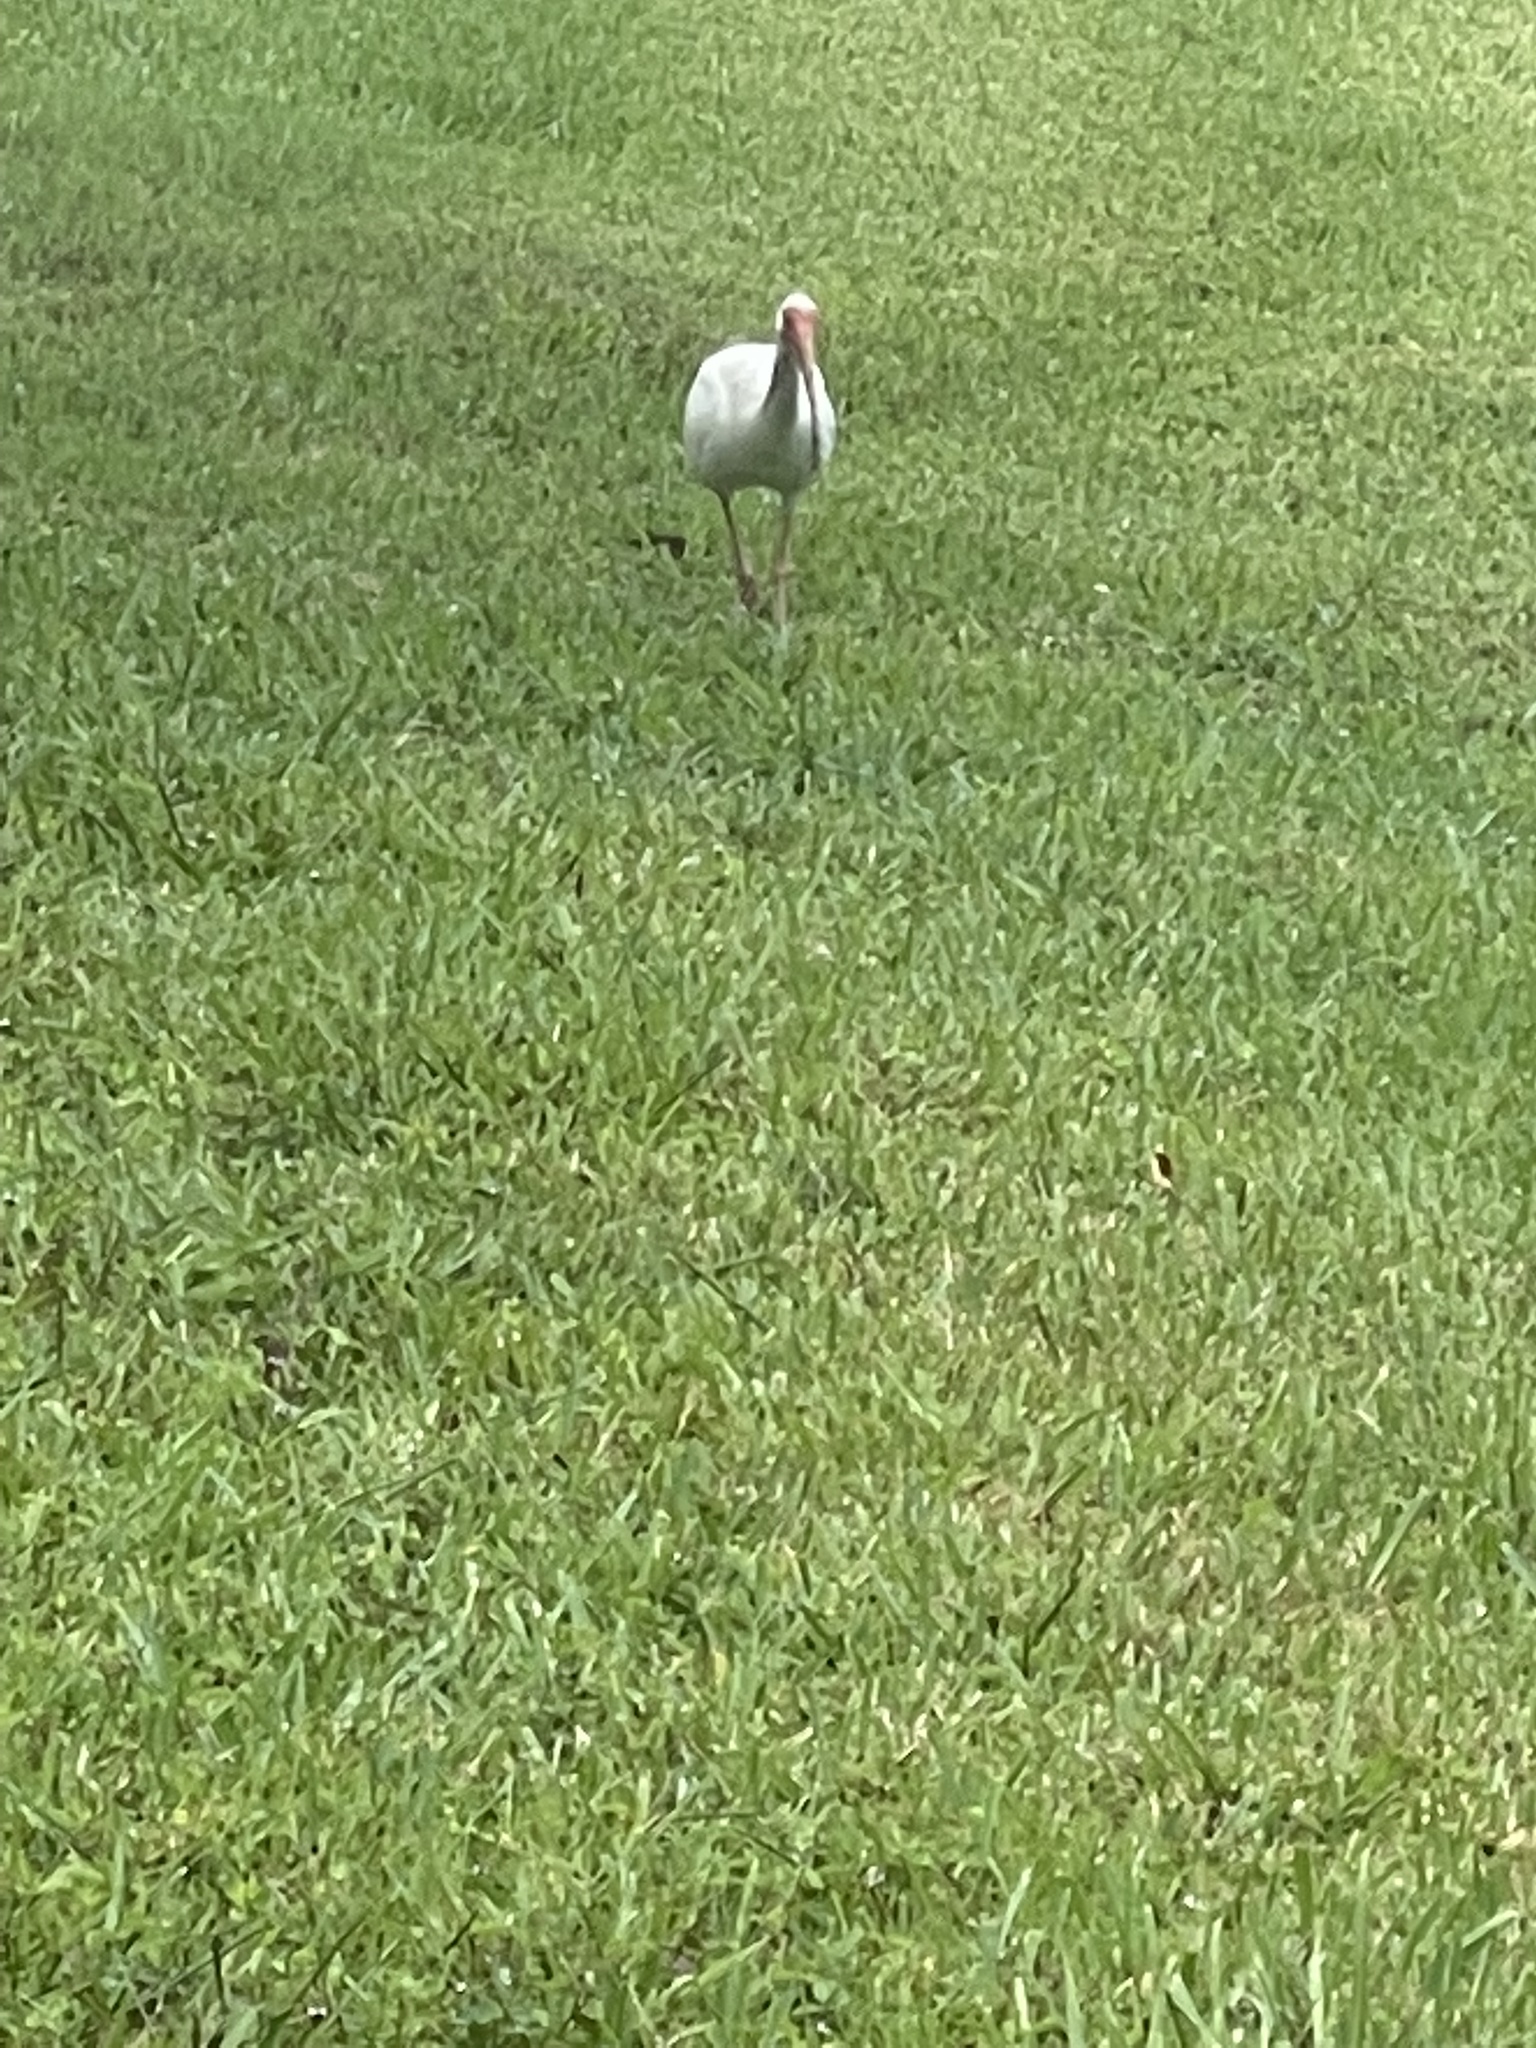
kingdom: Animalia
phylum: Chordata
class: Aves
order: Pelecaniformes
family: Threskiornithidae
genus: Eudocimus
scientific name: Eudocimus albus
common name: White ibis
